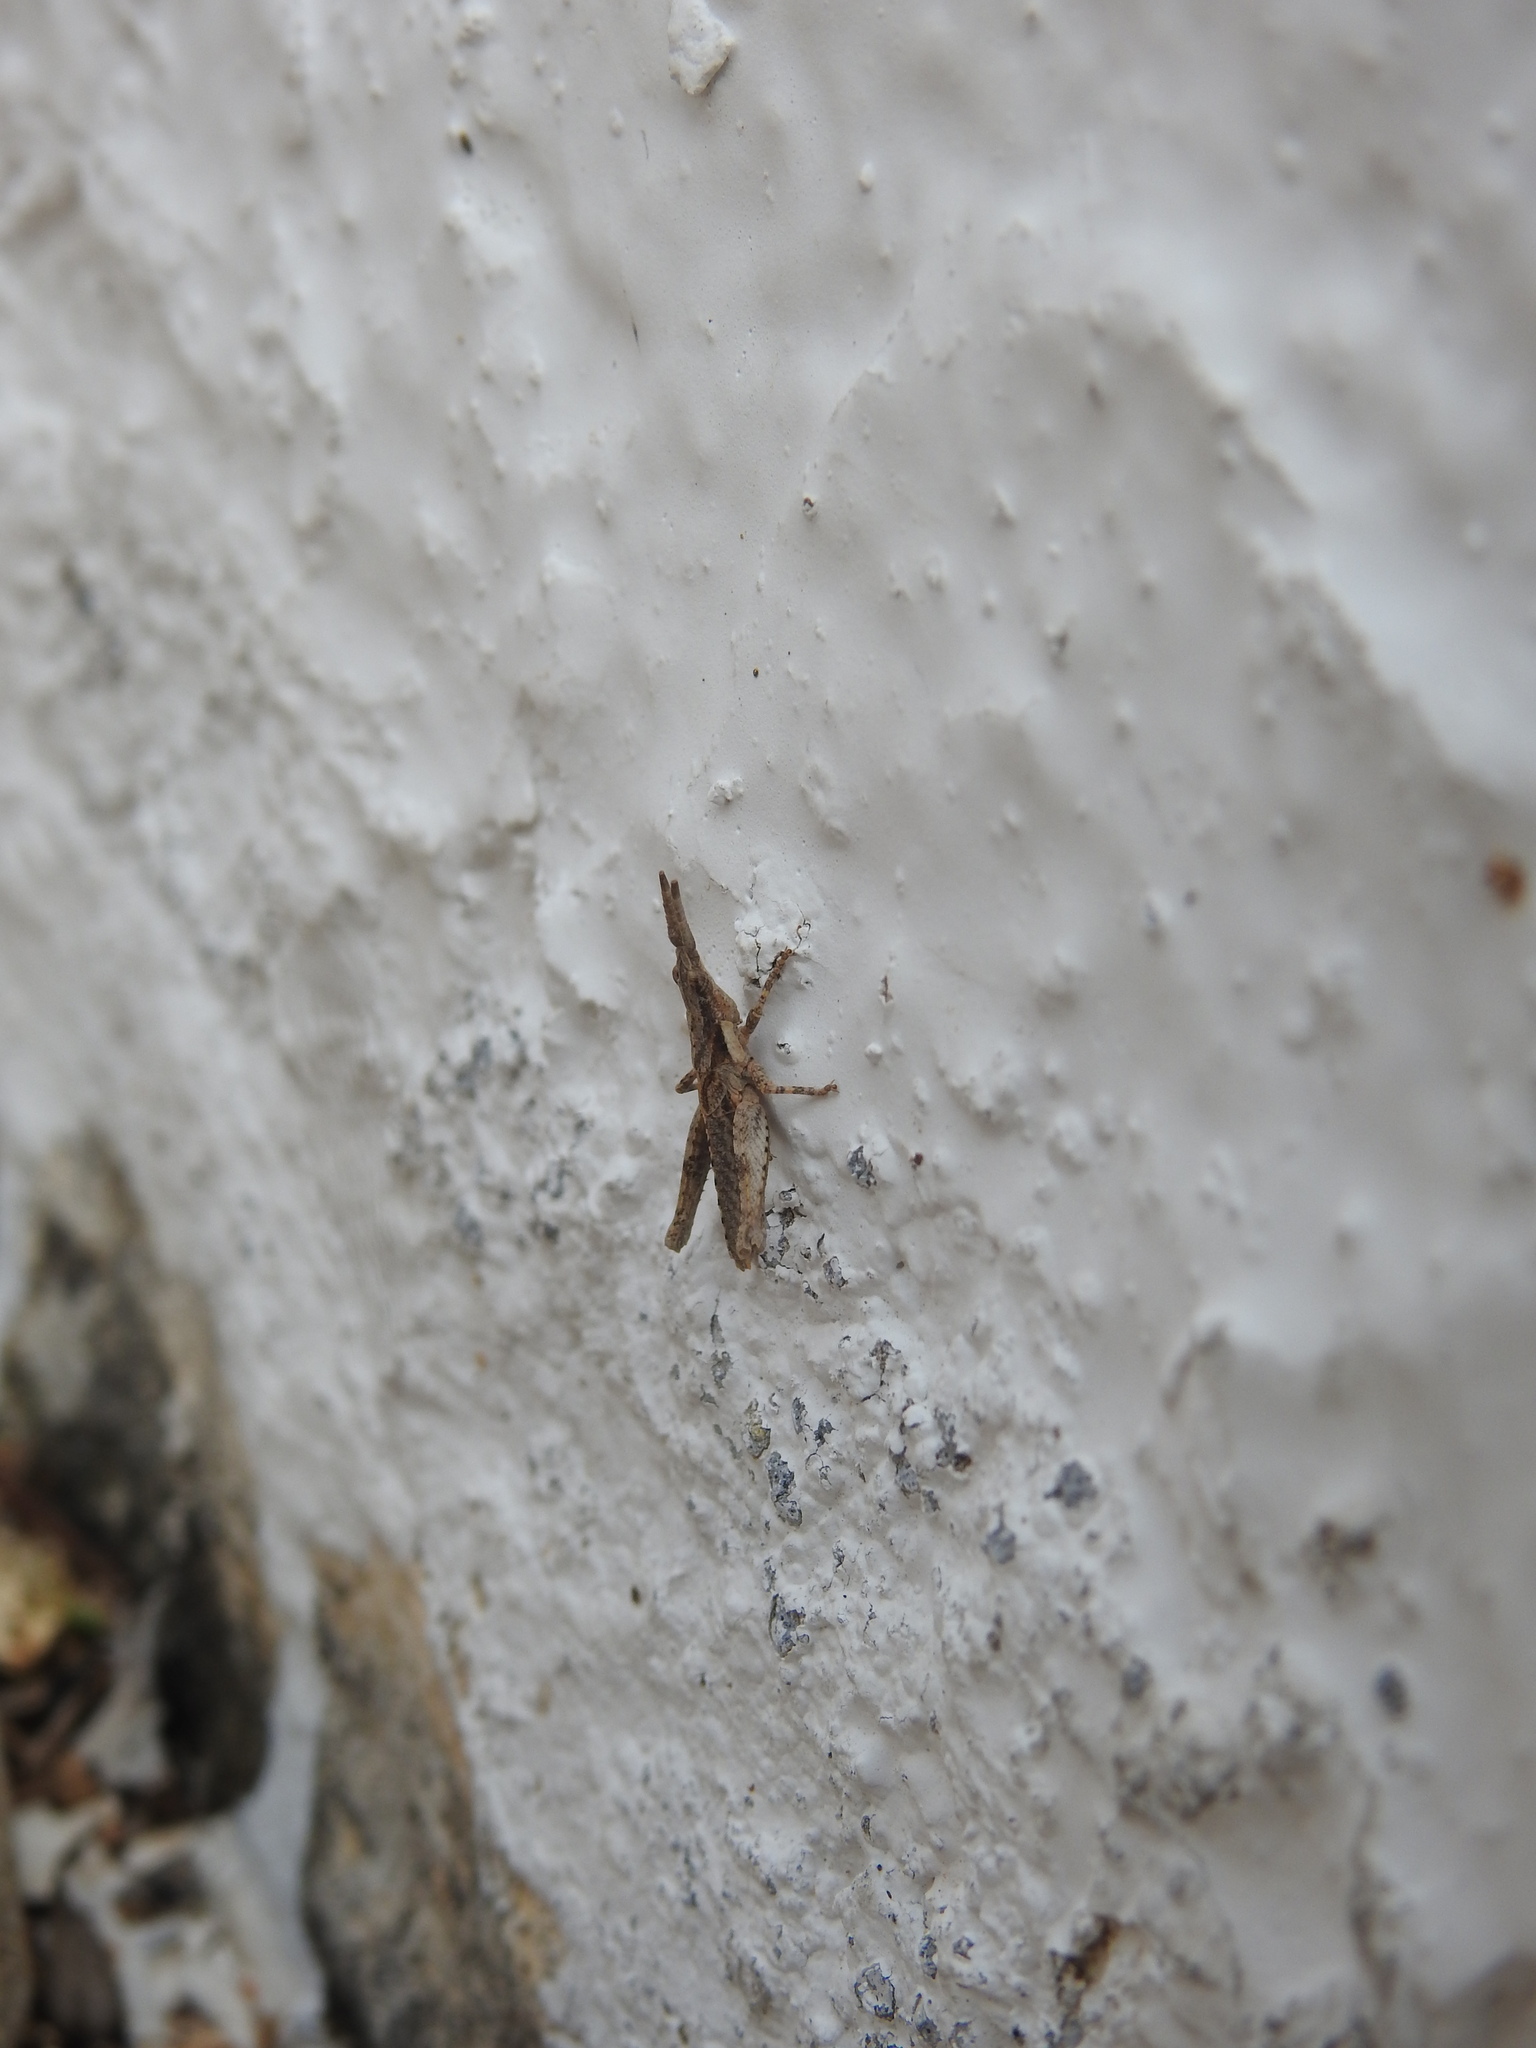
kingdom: Animalia
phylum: Arthropoda
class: Insecta
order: Orthoptera
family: Pyrgomorphidae
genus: Pyrgomorpha
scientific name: Pyrgomorpha conica
